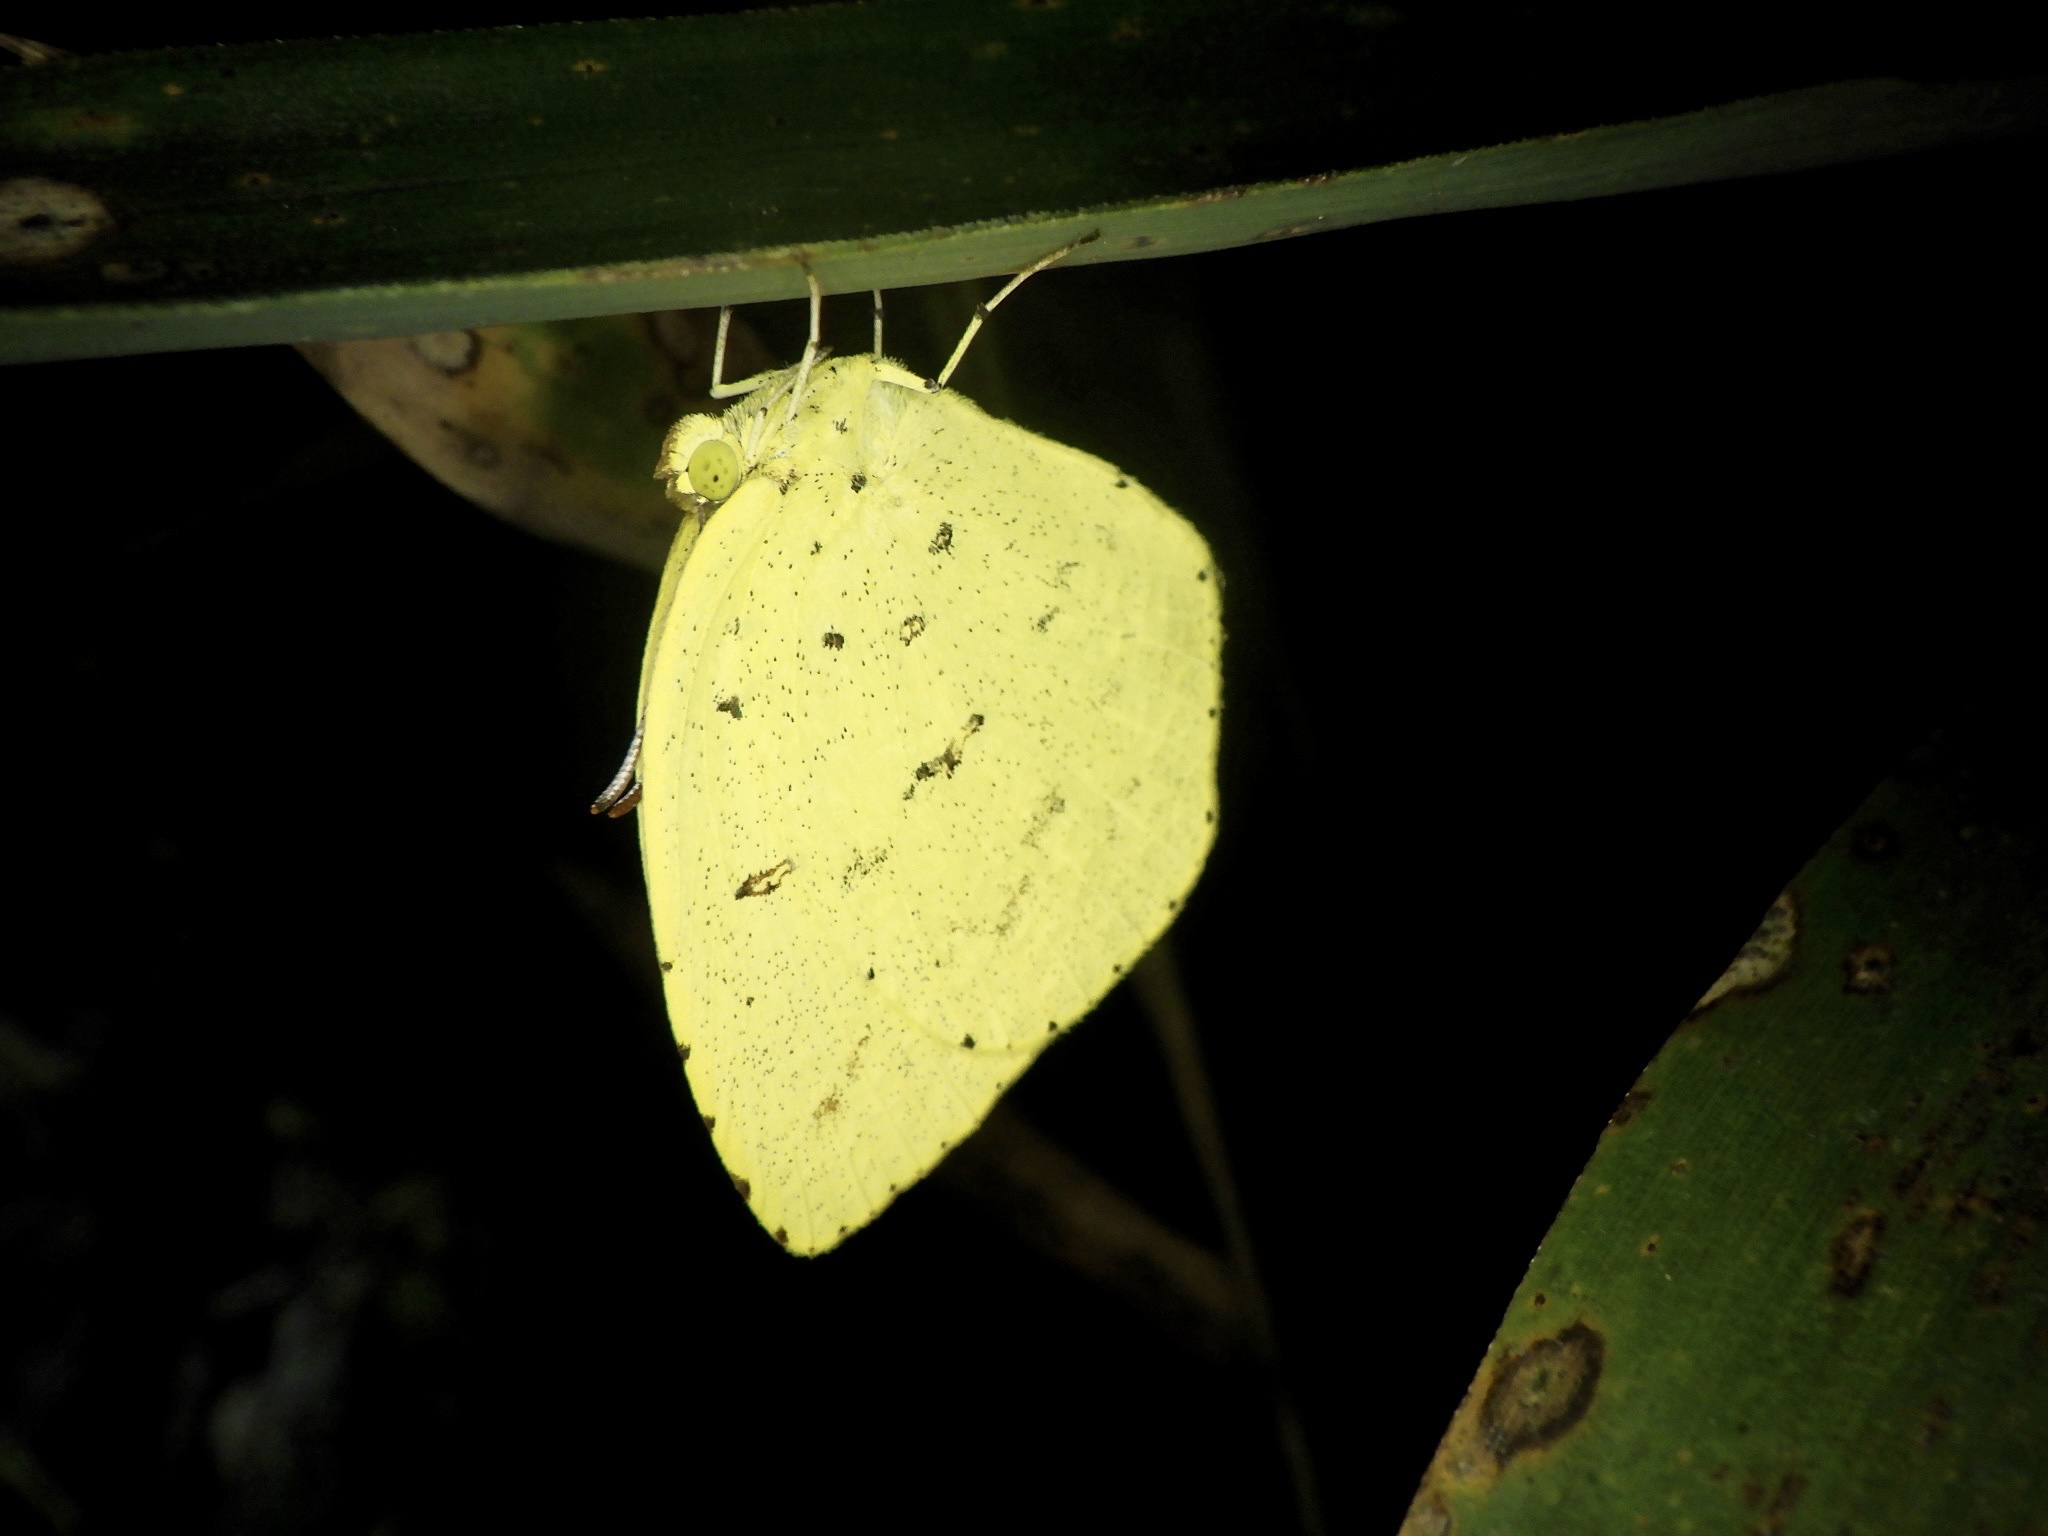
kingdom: Animalia
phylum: Arthropoda
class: Insecta
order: Lepidoptera
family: Pieridae
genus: Eurema
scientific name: Eurema mandarina
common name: Japanese common grass yellow
